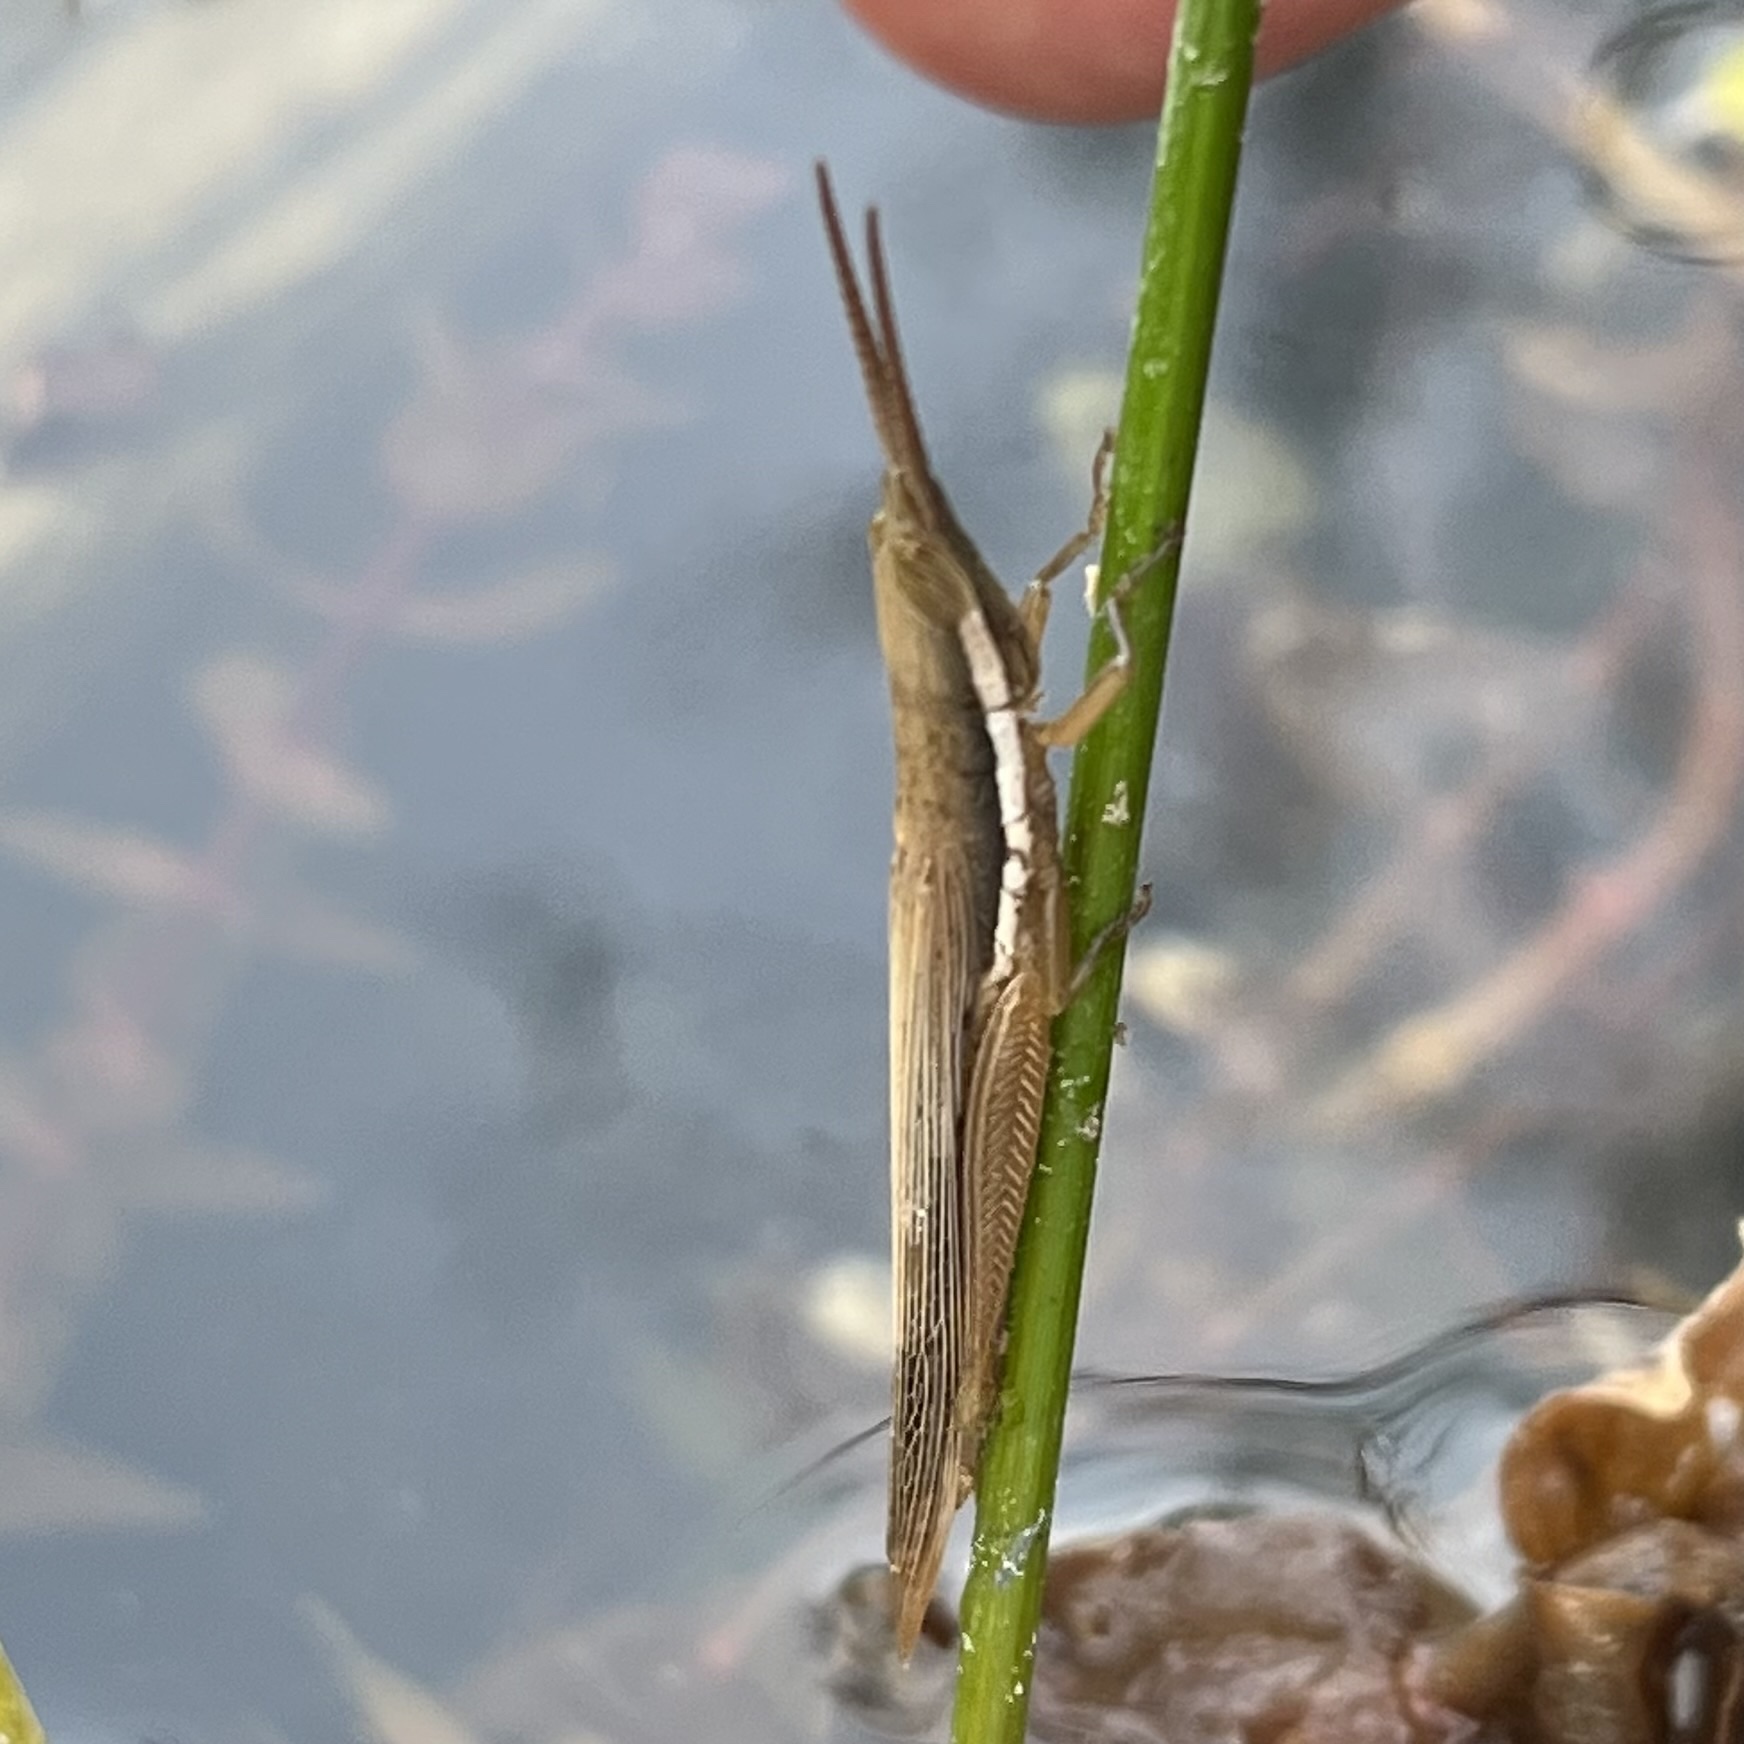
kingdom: Animalia
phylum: Arthropoda
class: Insecta
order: Orthoptera
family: Acrididae
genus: Leptysma
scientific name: Leptysma marginicollis
